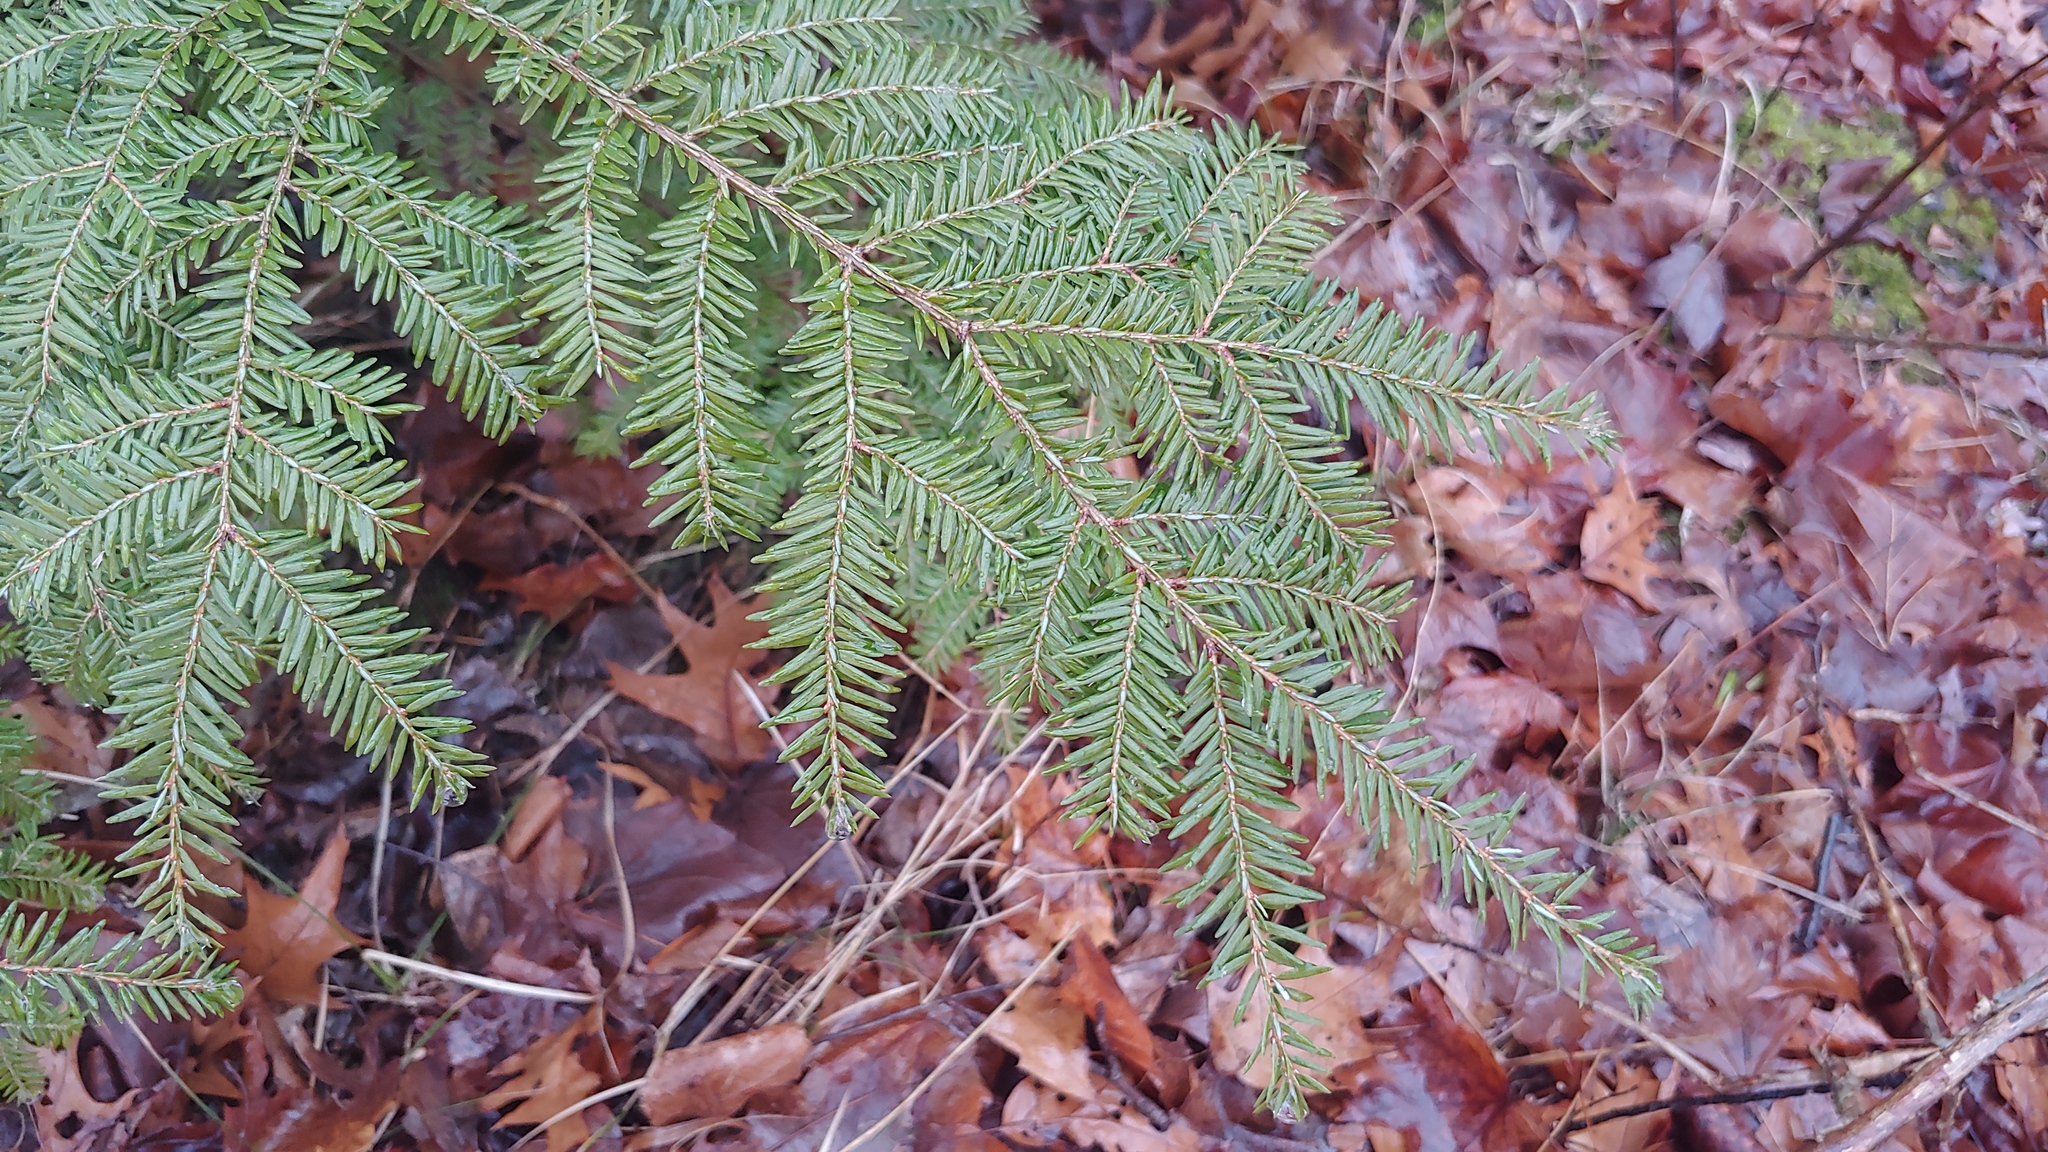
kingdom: Plantae
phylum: Tracheophyta
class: Pinopsida
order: Pinales
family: Pinaceae
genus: Tsuga
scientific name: Tsuga canadensis
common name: Eastern hemlock
